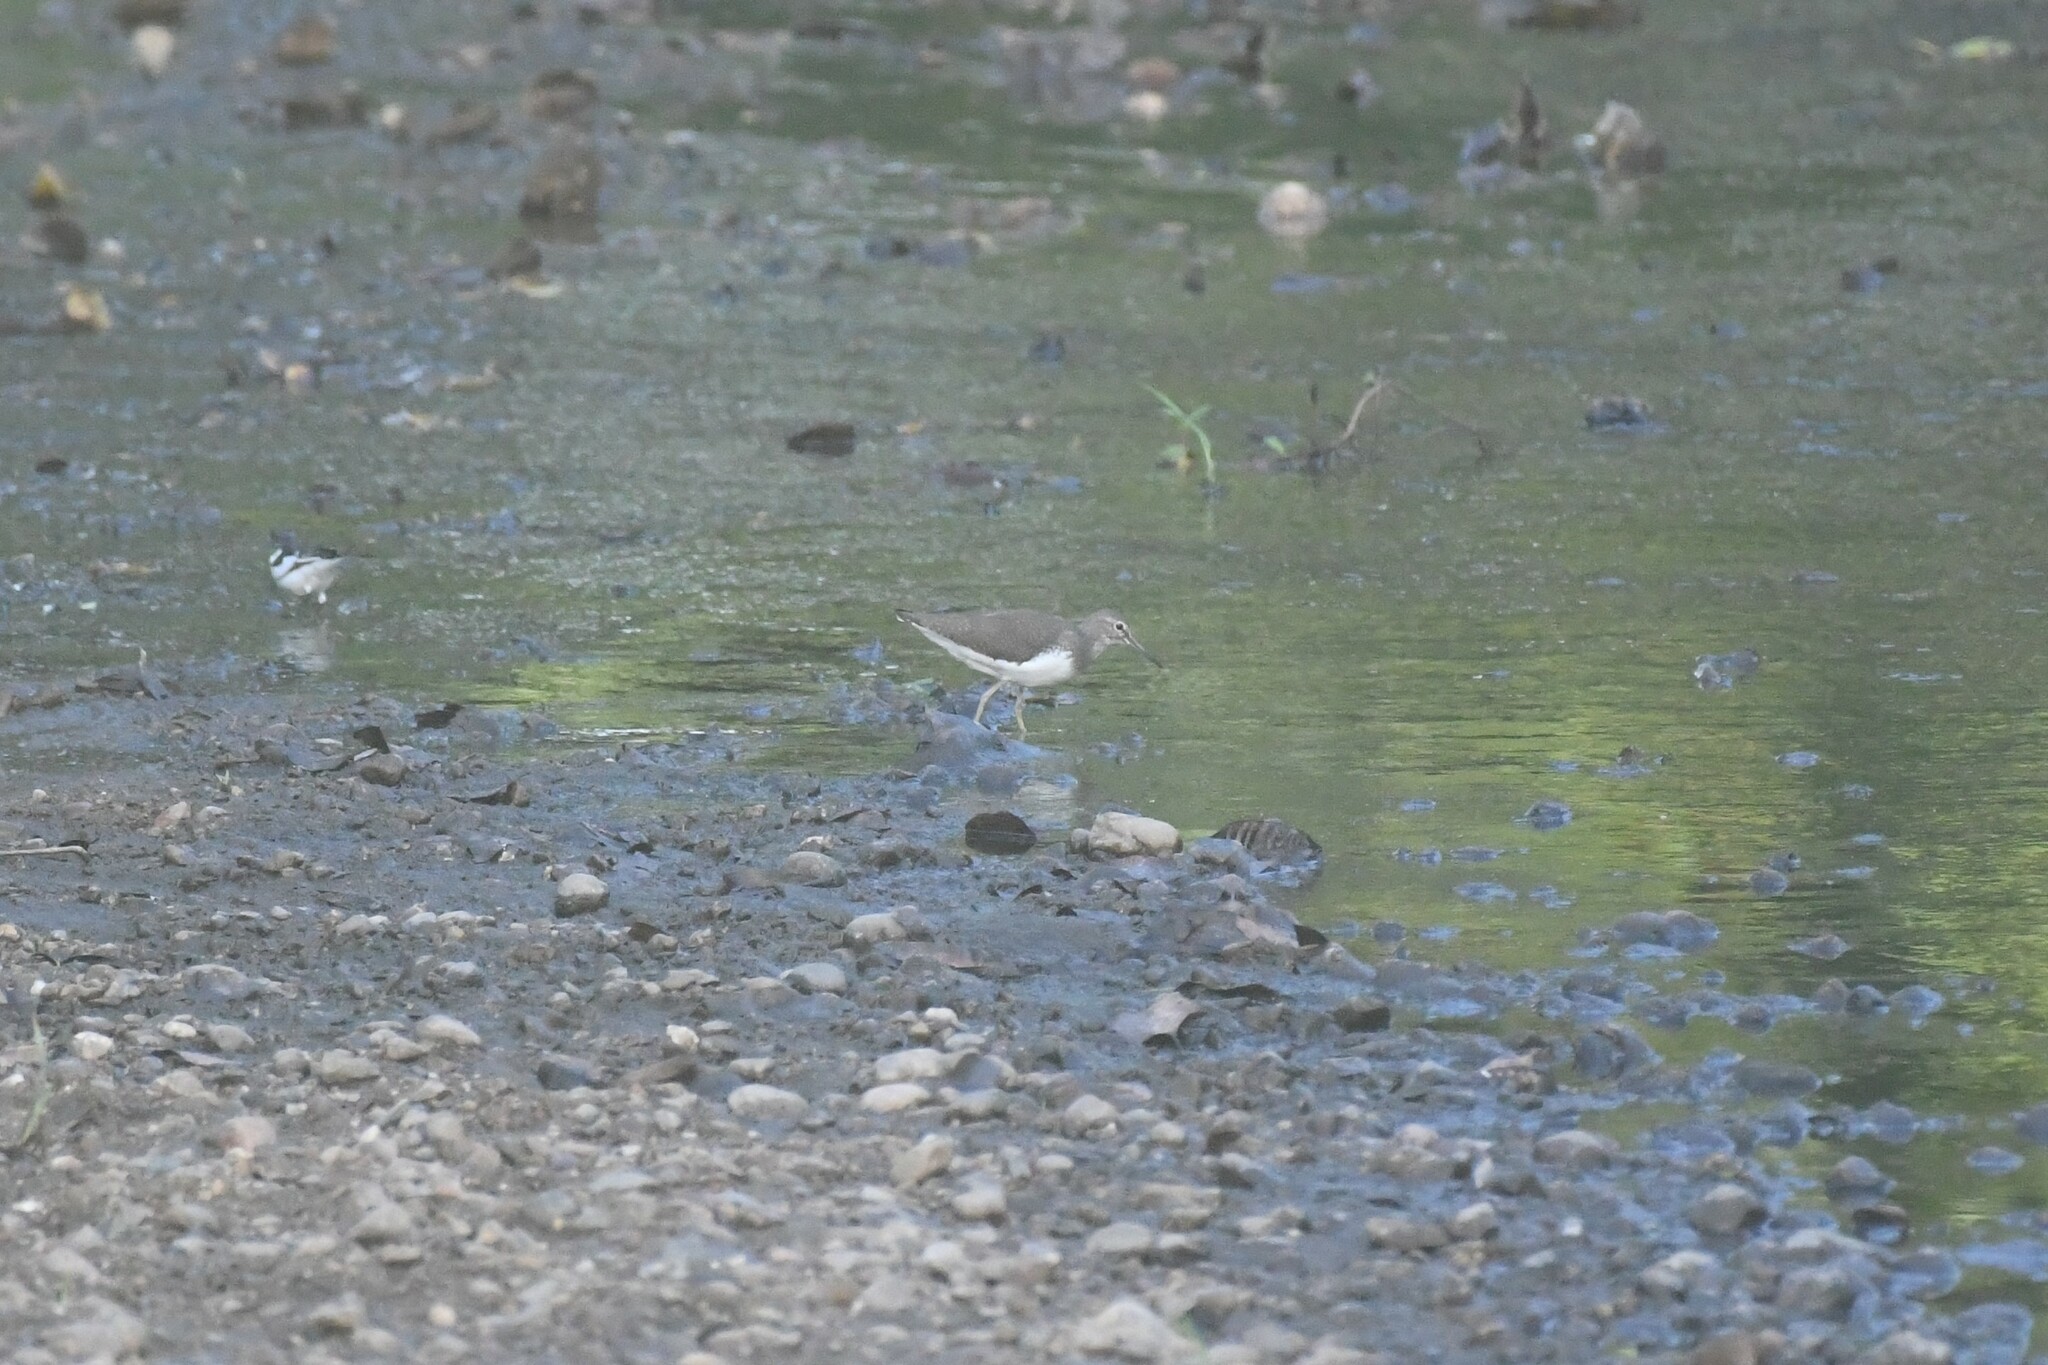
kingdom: Animalia
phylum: Chordata
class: Aves
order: Charadriiformes
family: Scolopacidae
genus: Tringa
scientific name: Tringa ochropus
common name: Green sandpiper
